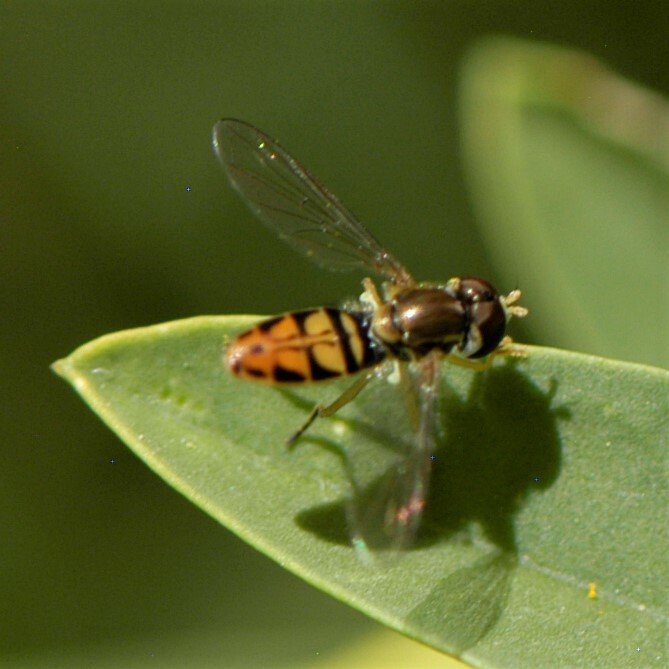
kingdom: Animalia
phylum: Arthropoda
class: Insecta
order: Diptera
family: Syrphidae
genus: Toxomerus
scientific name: Toxomerus marginatus
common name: Syrphid fly
